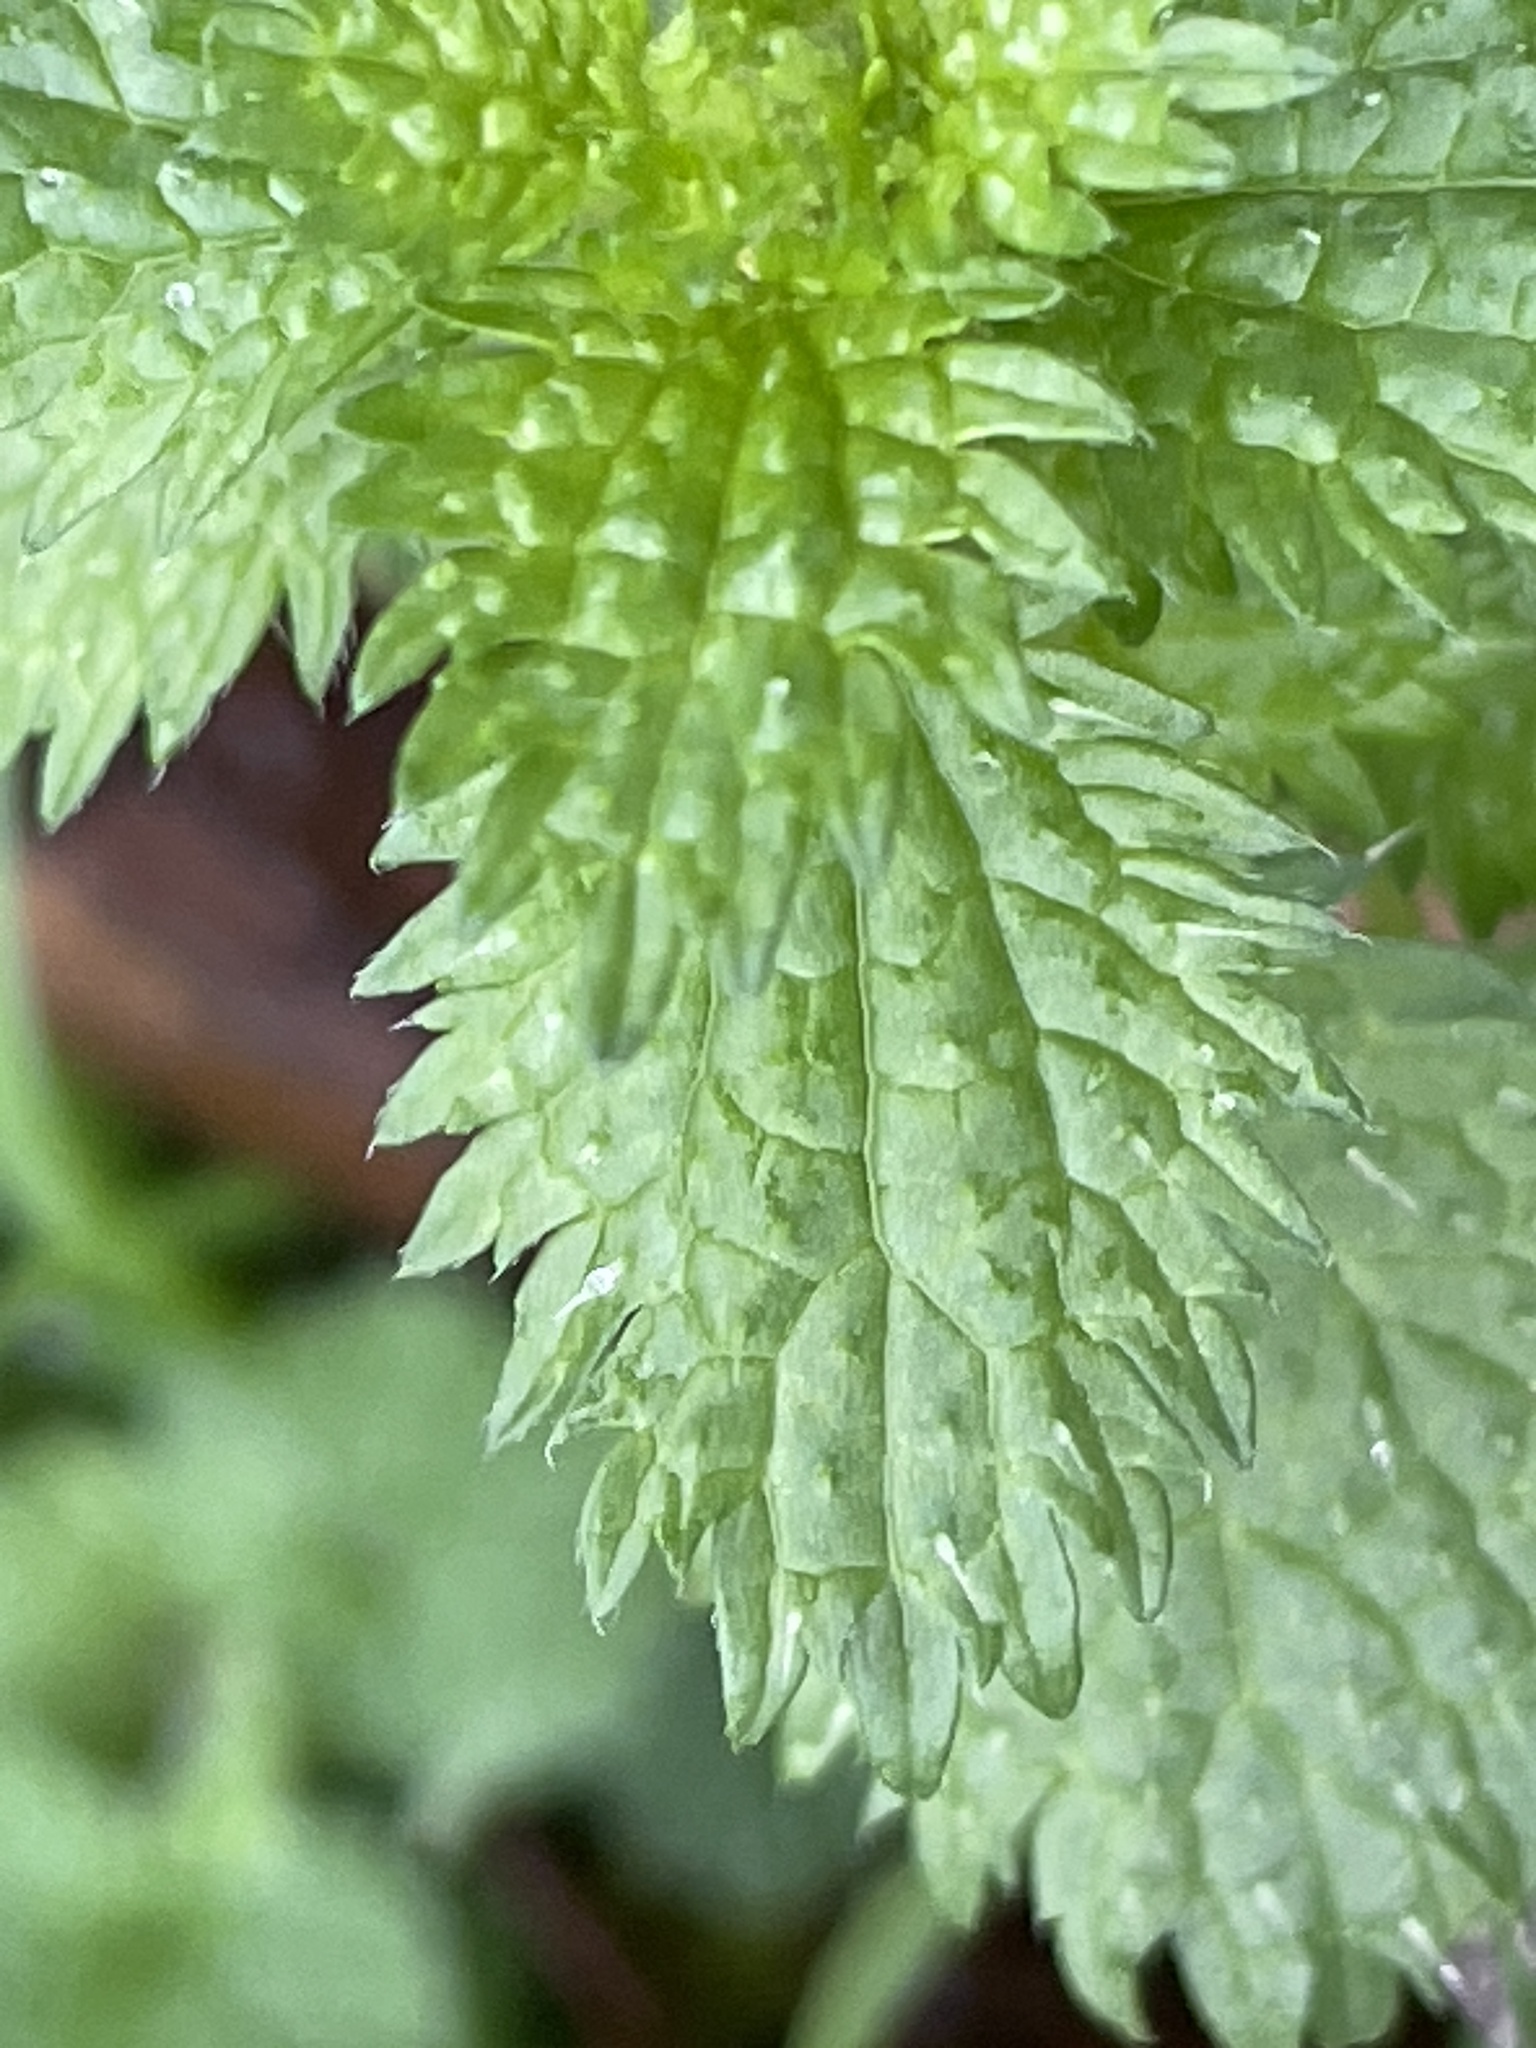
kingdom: Plantae
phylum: Tracheophyta
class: Magnoliopsida
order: Rosales
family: Urticaceae
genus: Urtica
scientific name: Urtica urens
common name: Dwarf nettle
